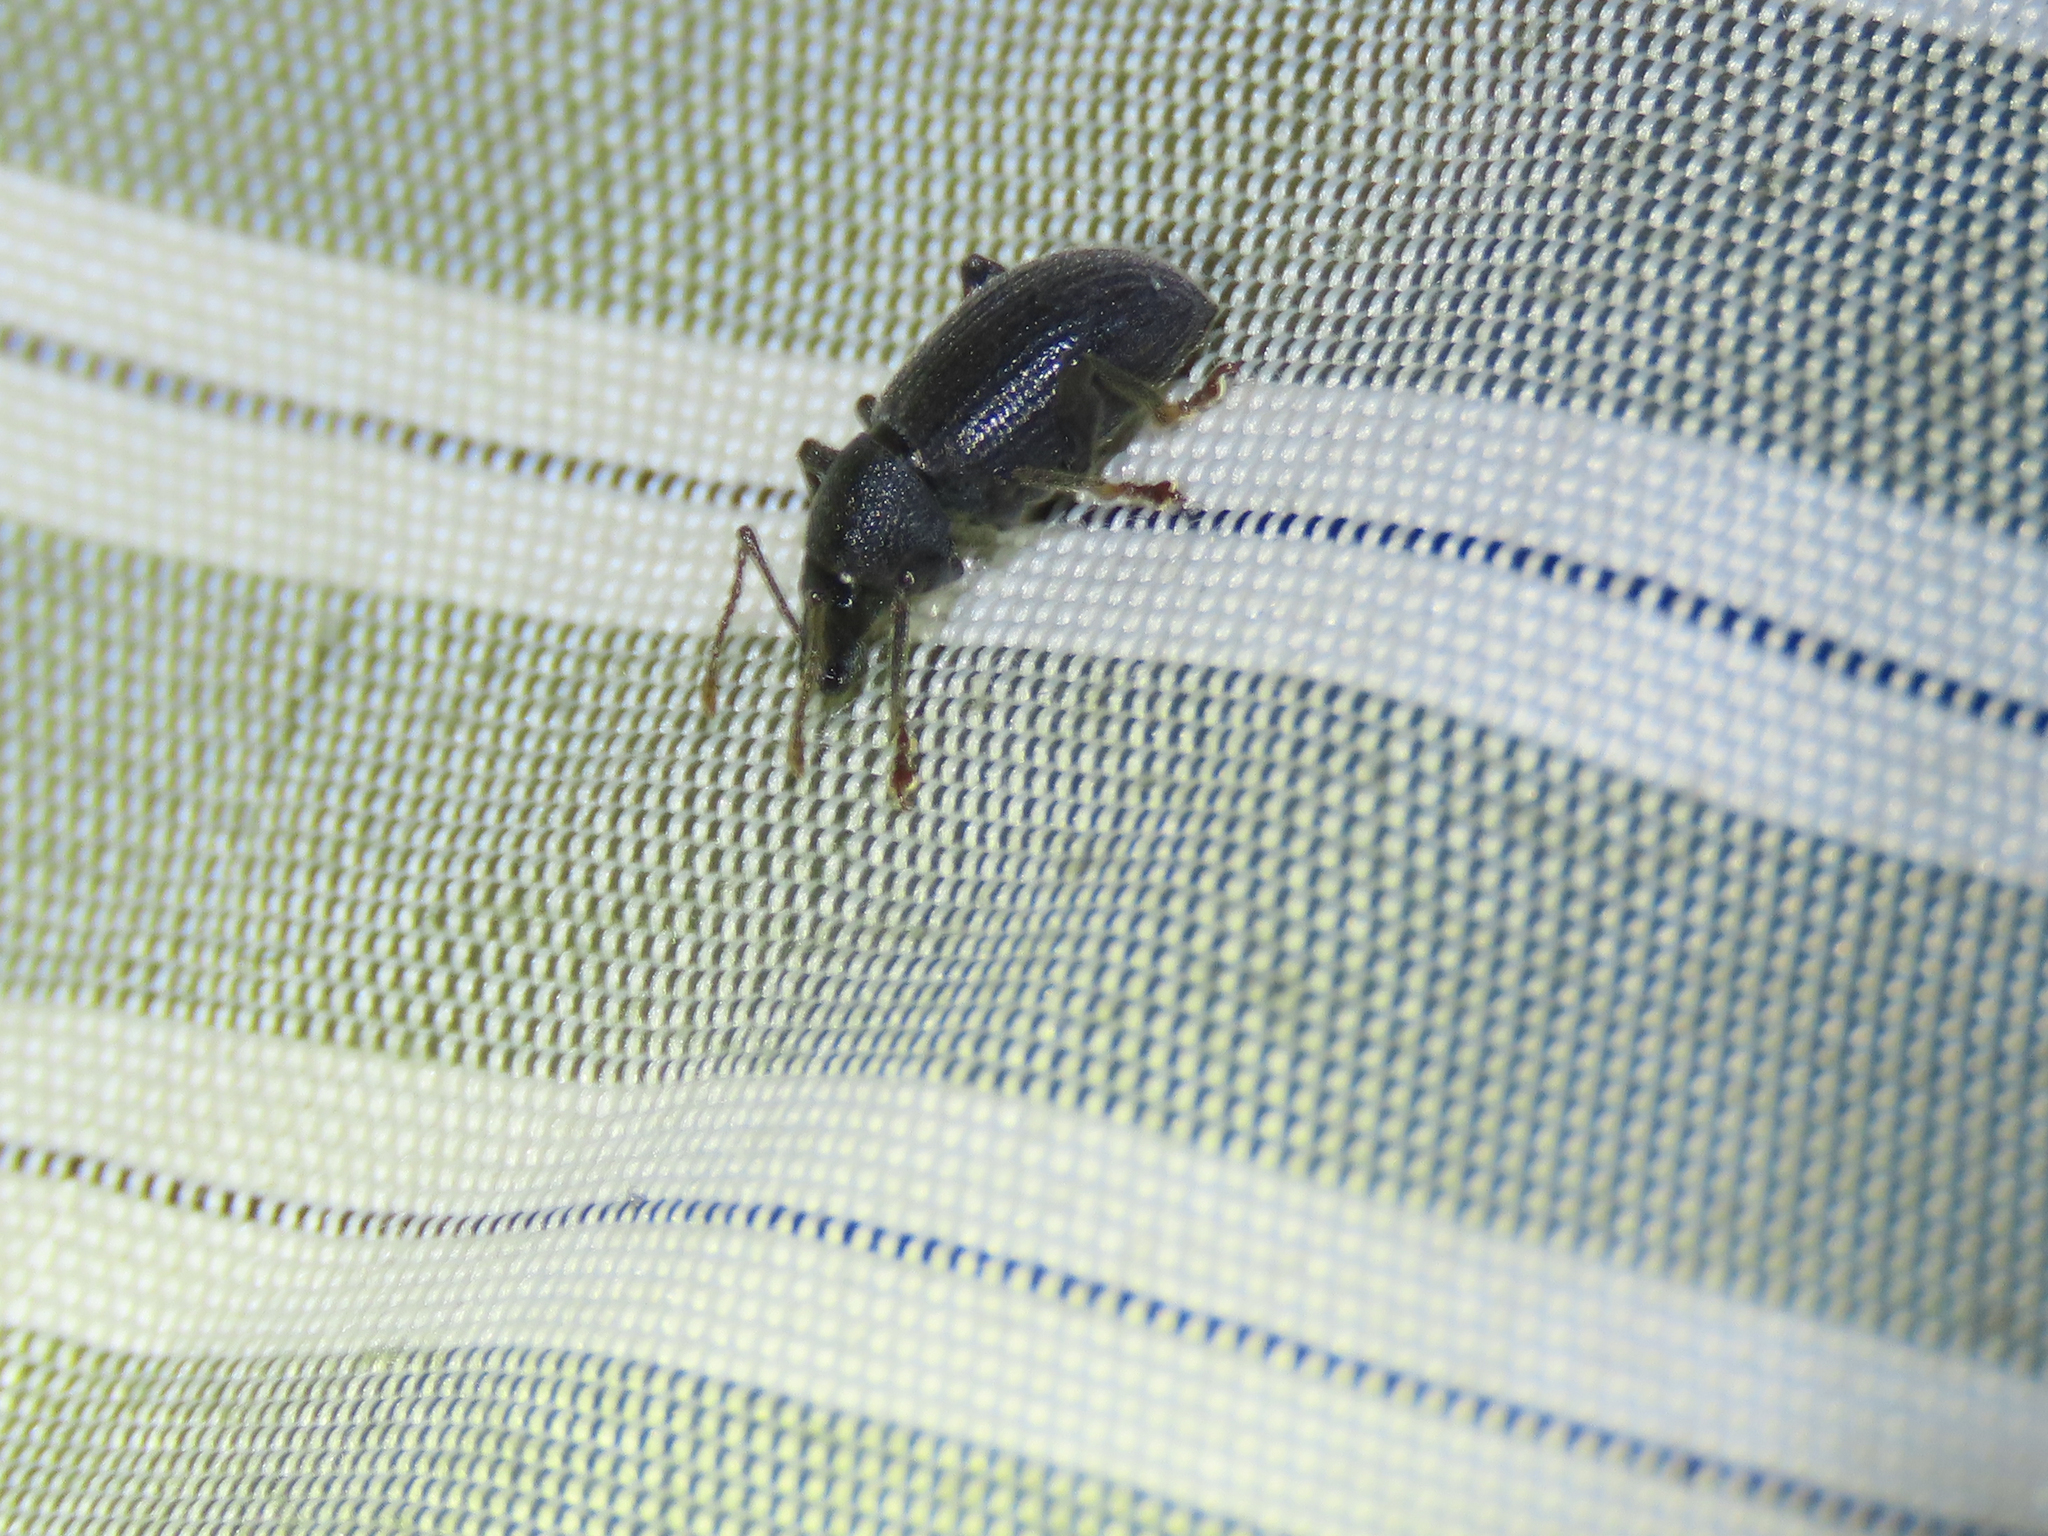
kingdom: Animalia
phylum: Arthropoda
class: Insecta
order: Coleoptera
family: Curculionidae
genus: Otiorhynchus
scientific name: Otiorhynchus meridionalis
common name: Weevil
